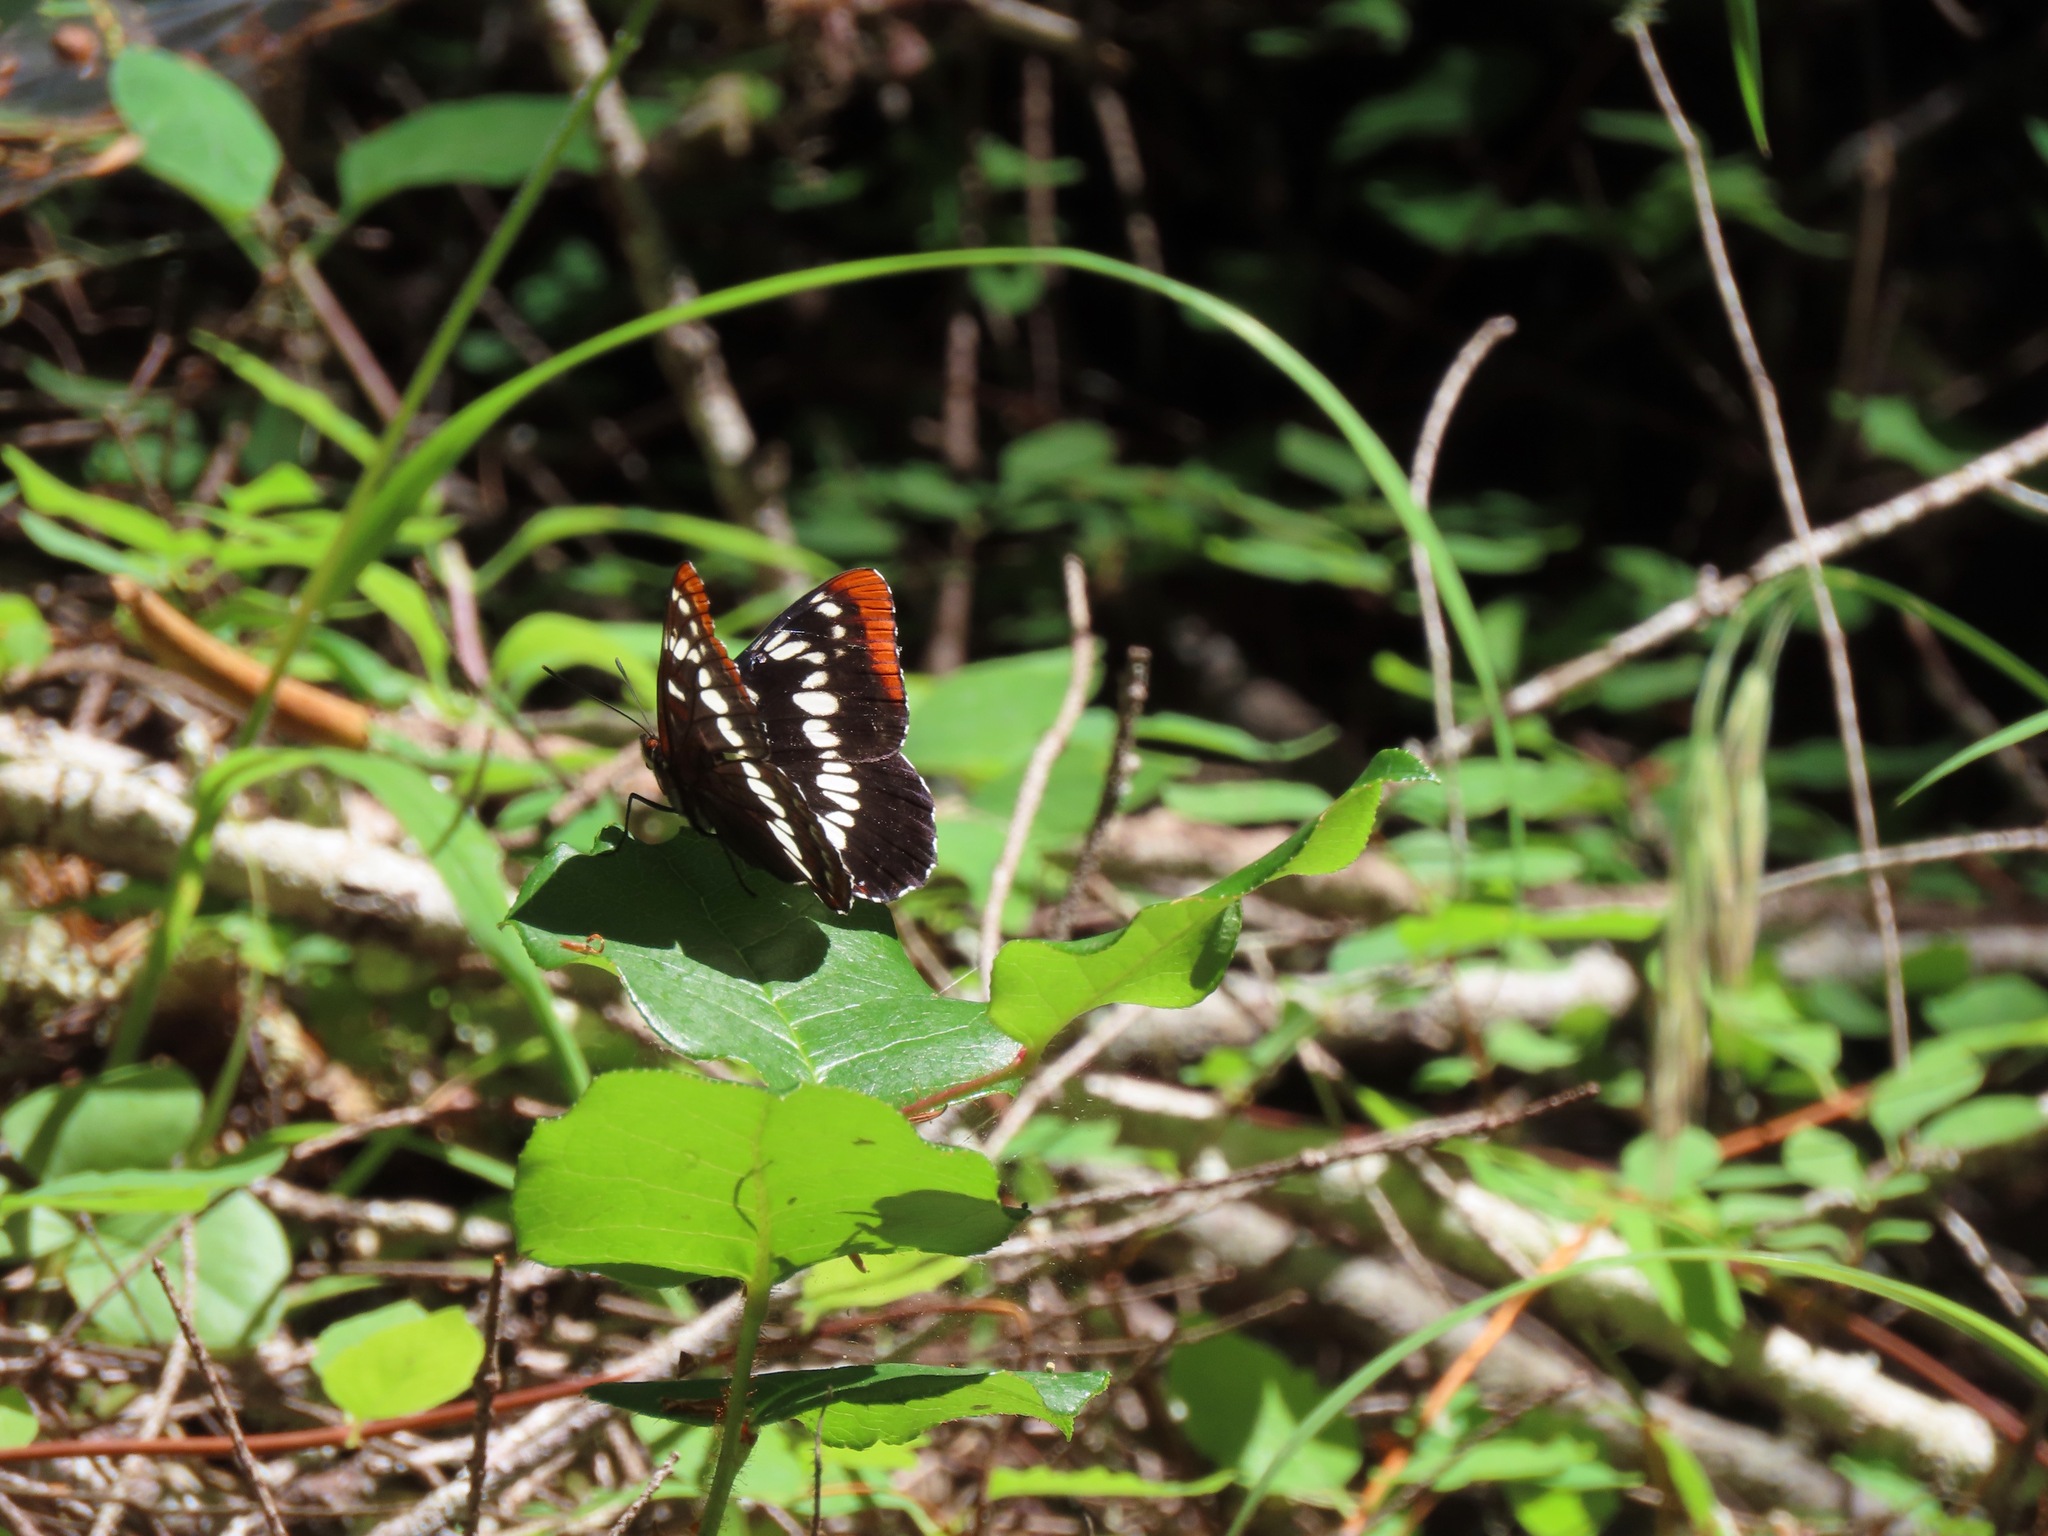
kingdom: Animalia
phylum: Arthropoda
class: Insecta
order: Lepidoptera
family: Nymphalidae
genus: Limenitis
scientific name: Limenitis lorquini
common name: Lorquin's admiral
